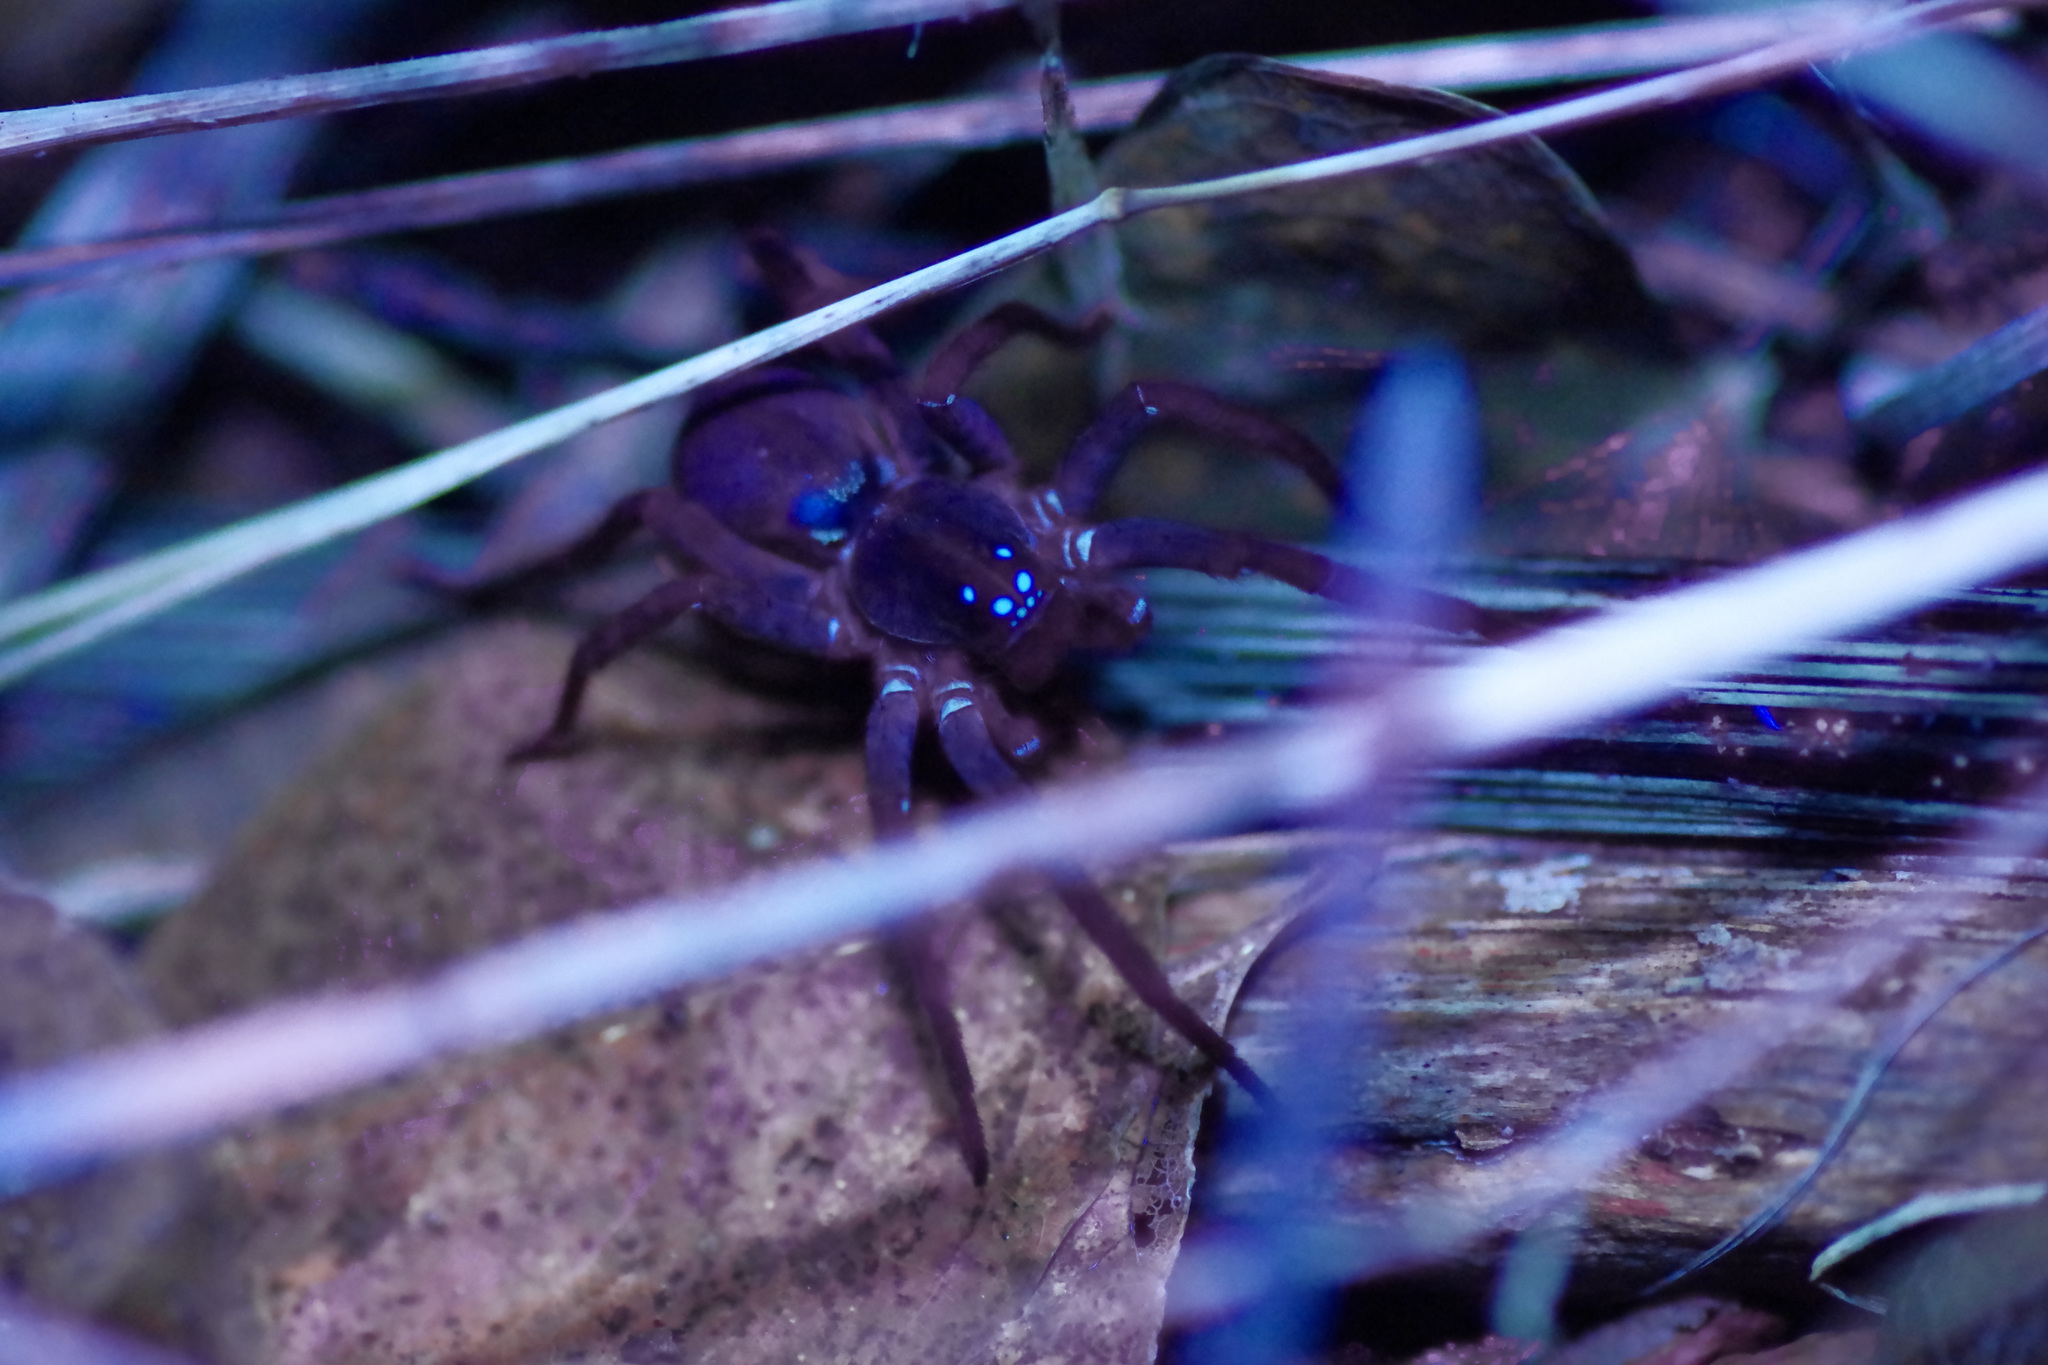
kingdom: Animalia
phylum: Arthropoda
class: Arachnida
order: Araneae
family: Lycosidae
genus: Tigrosa
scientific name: Tigrosa helluo
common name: Wetland giant wolf spider
